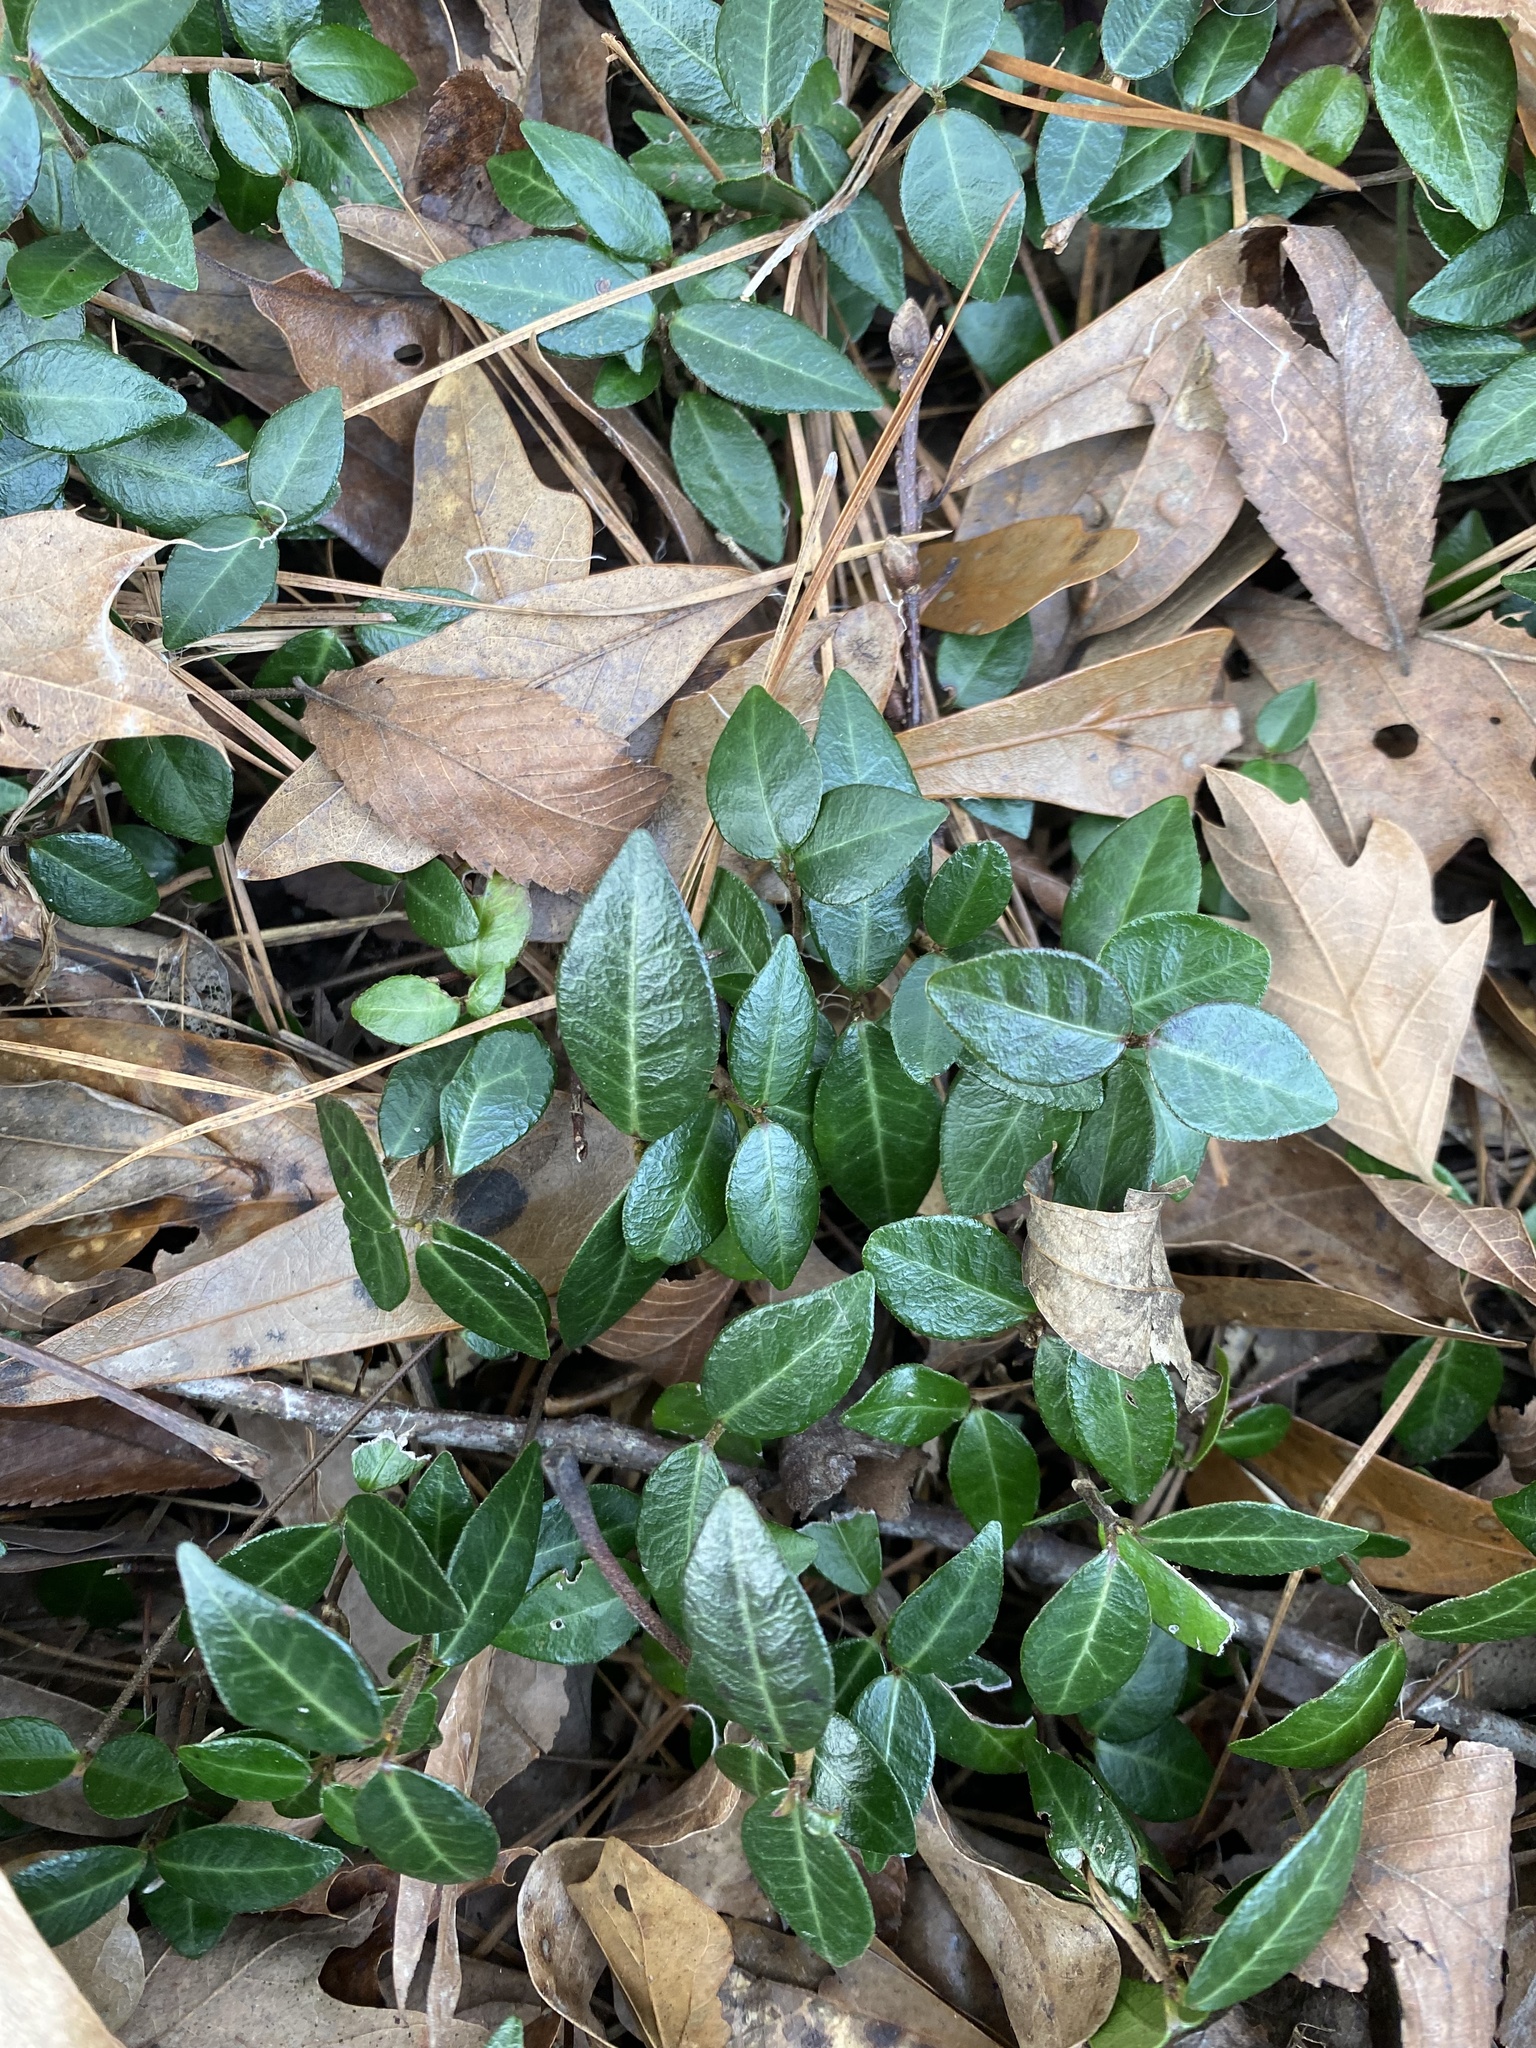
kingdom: Plantae
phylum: Tracheophyta
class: Magnoliopsida
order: Gentianales
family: Apocynaceae
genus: Trachelospermum
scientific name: Trachelospermum asiaticum
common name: Asiatic jasmine
